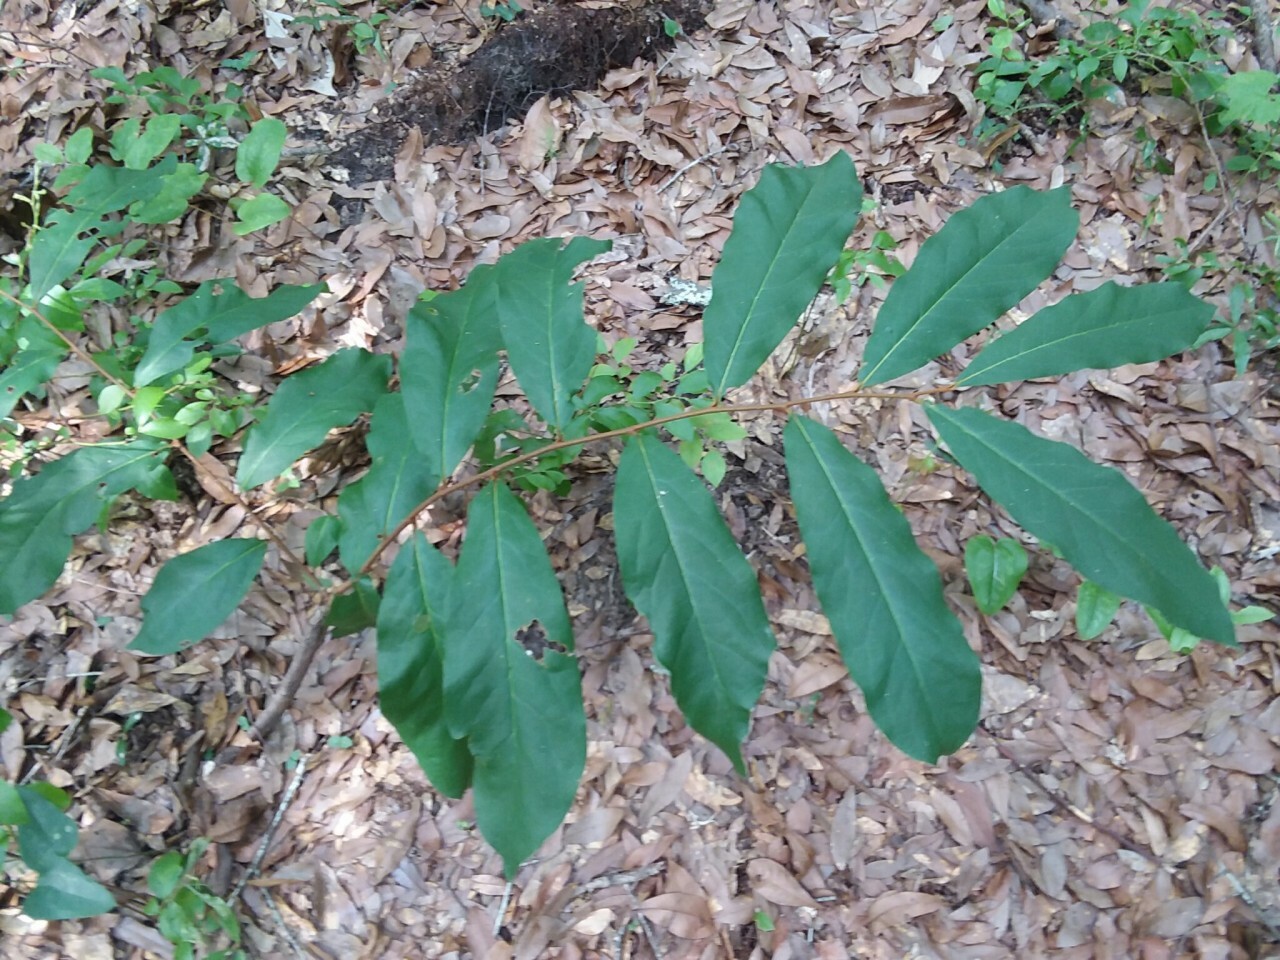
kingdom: Plantae
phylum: Tracheophyta
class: Magnoliopsida
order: Magnoliales
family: Annonaceae
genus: Asimina
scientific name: Asimina parviflora
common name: Dwarf pawpaw
